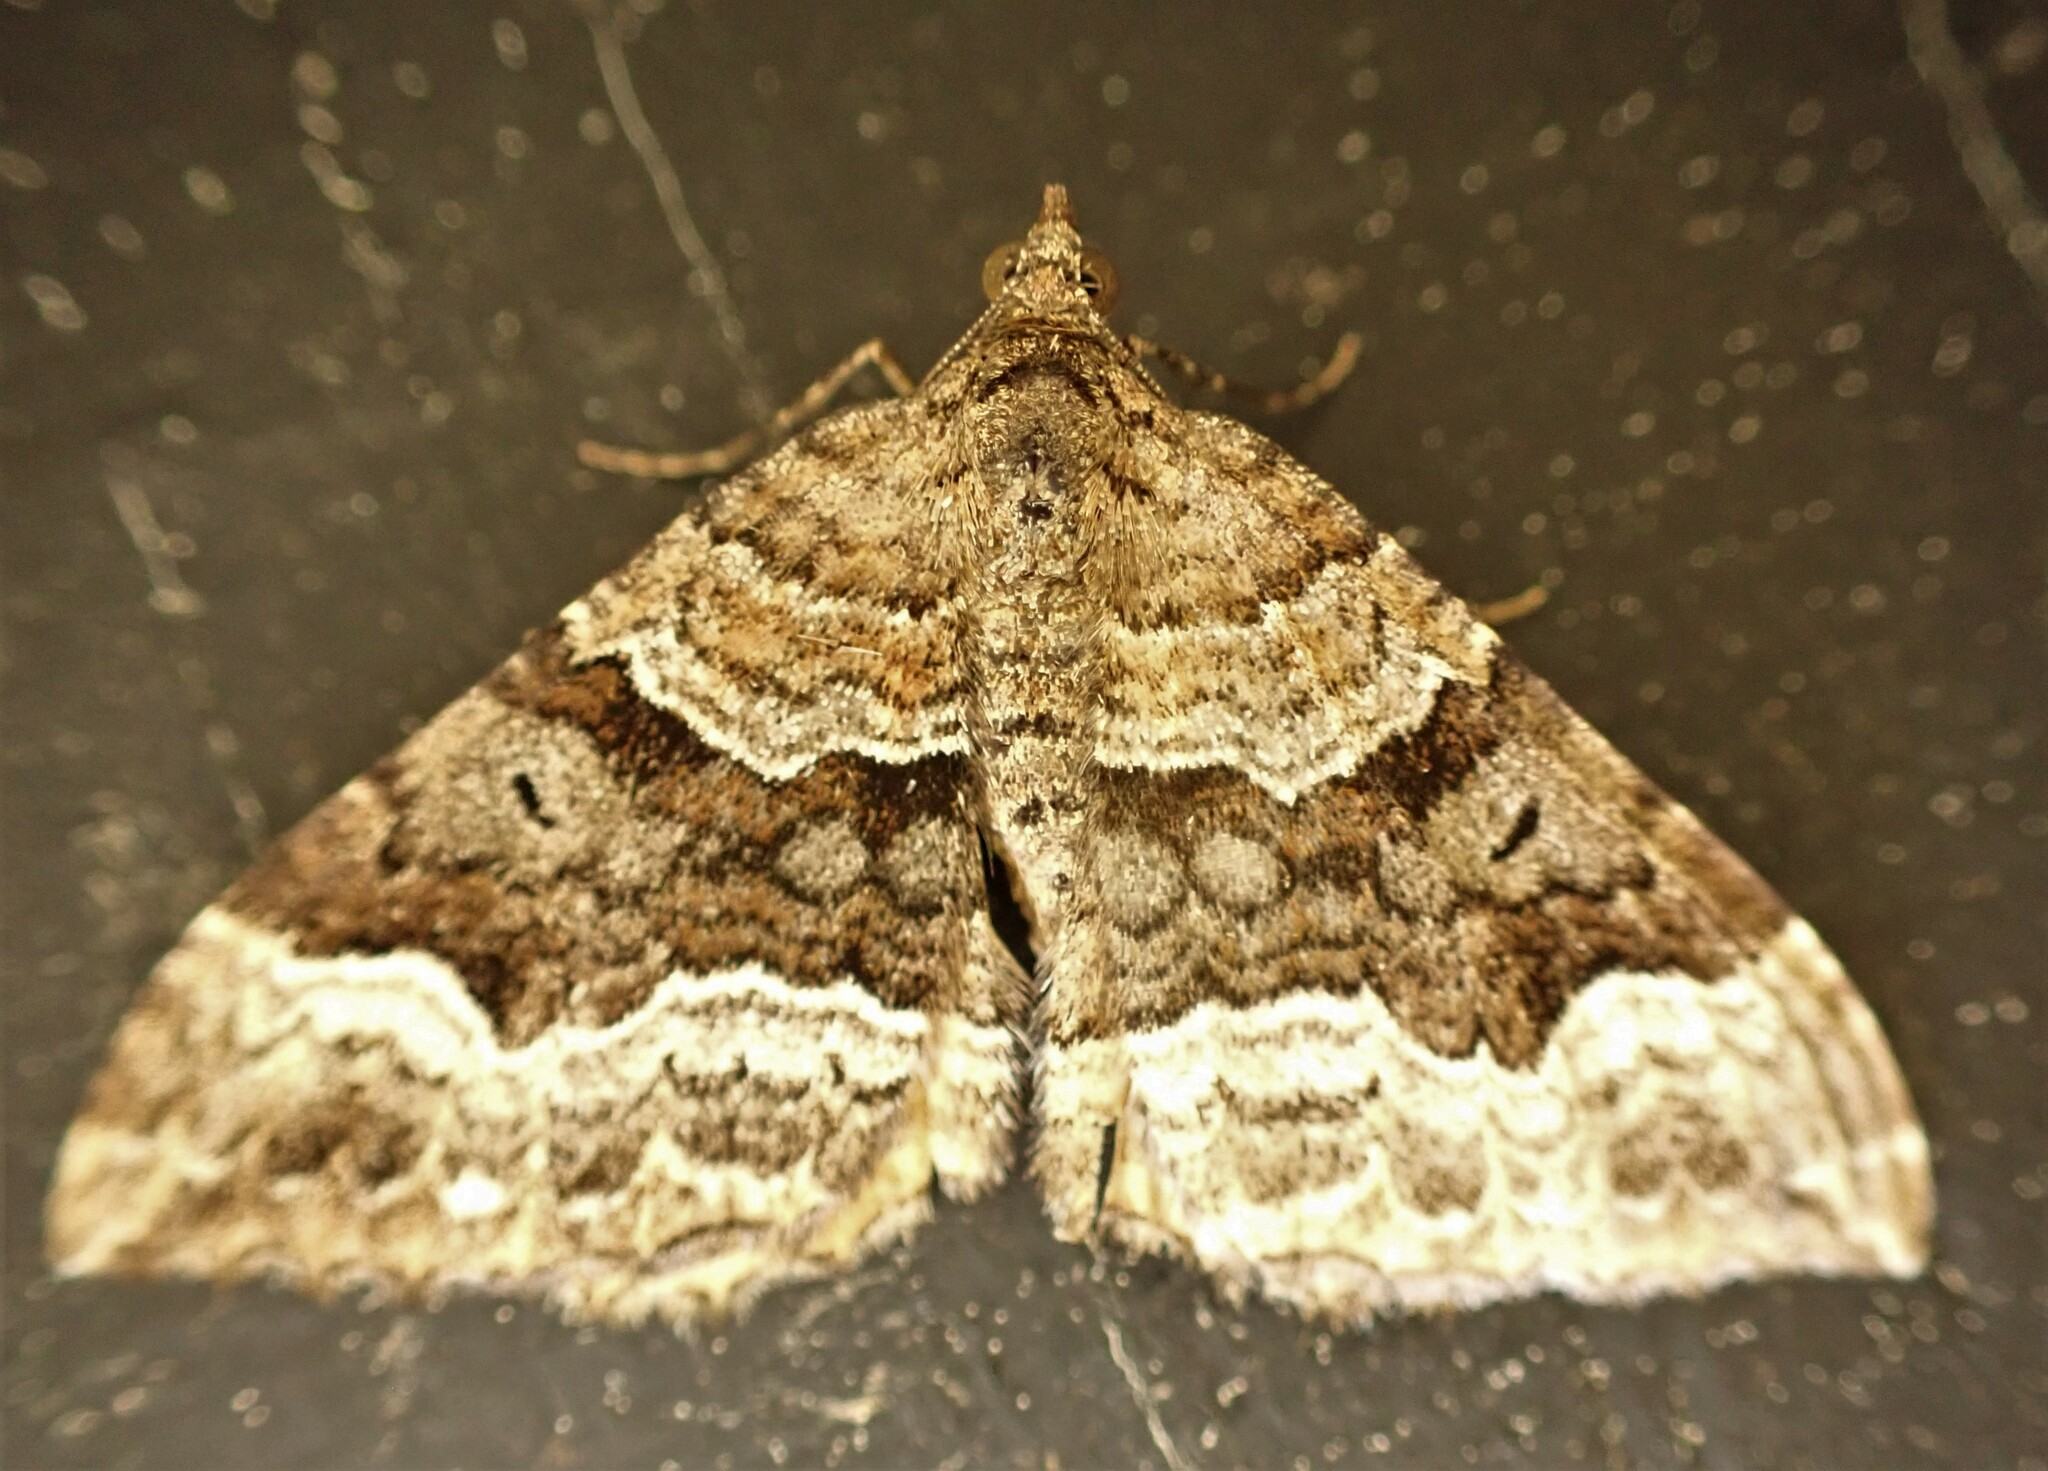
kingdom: Animalia
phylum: Arthropoda
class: Insecta
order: Lepidoptera
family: Geometridae
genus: Hydriomena
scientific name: Hydriomena deltoidata
